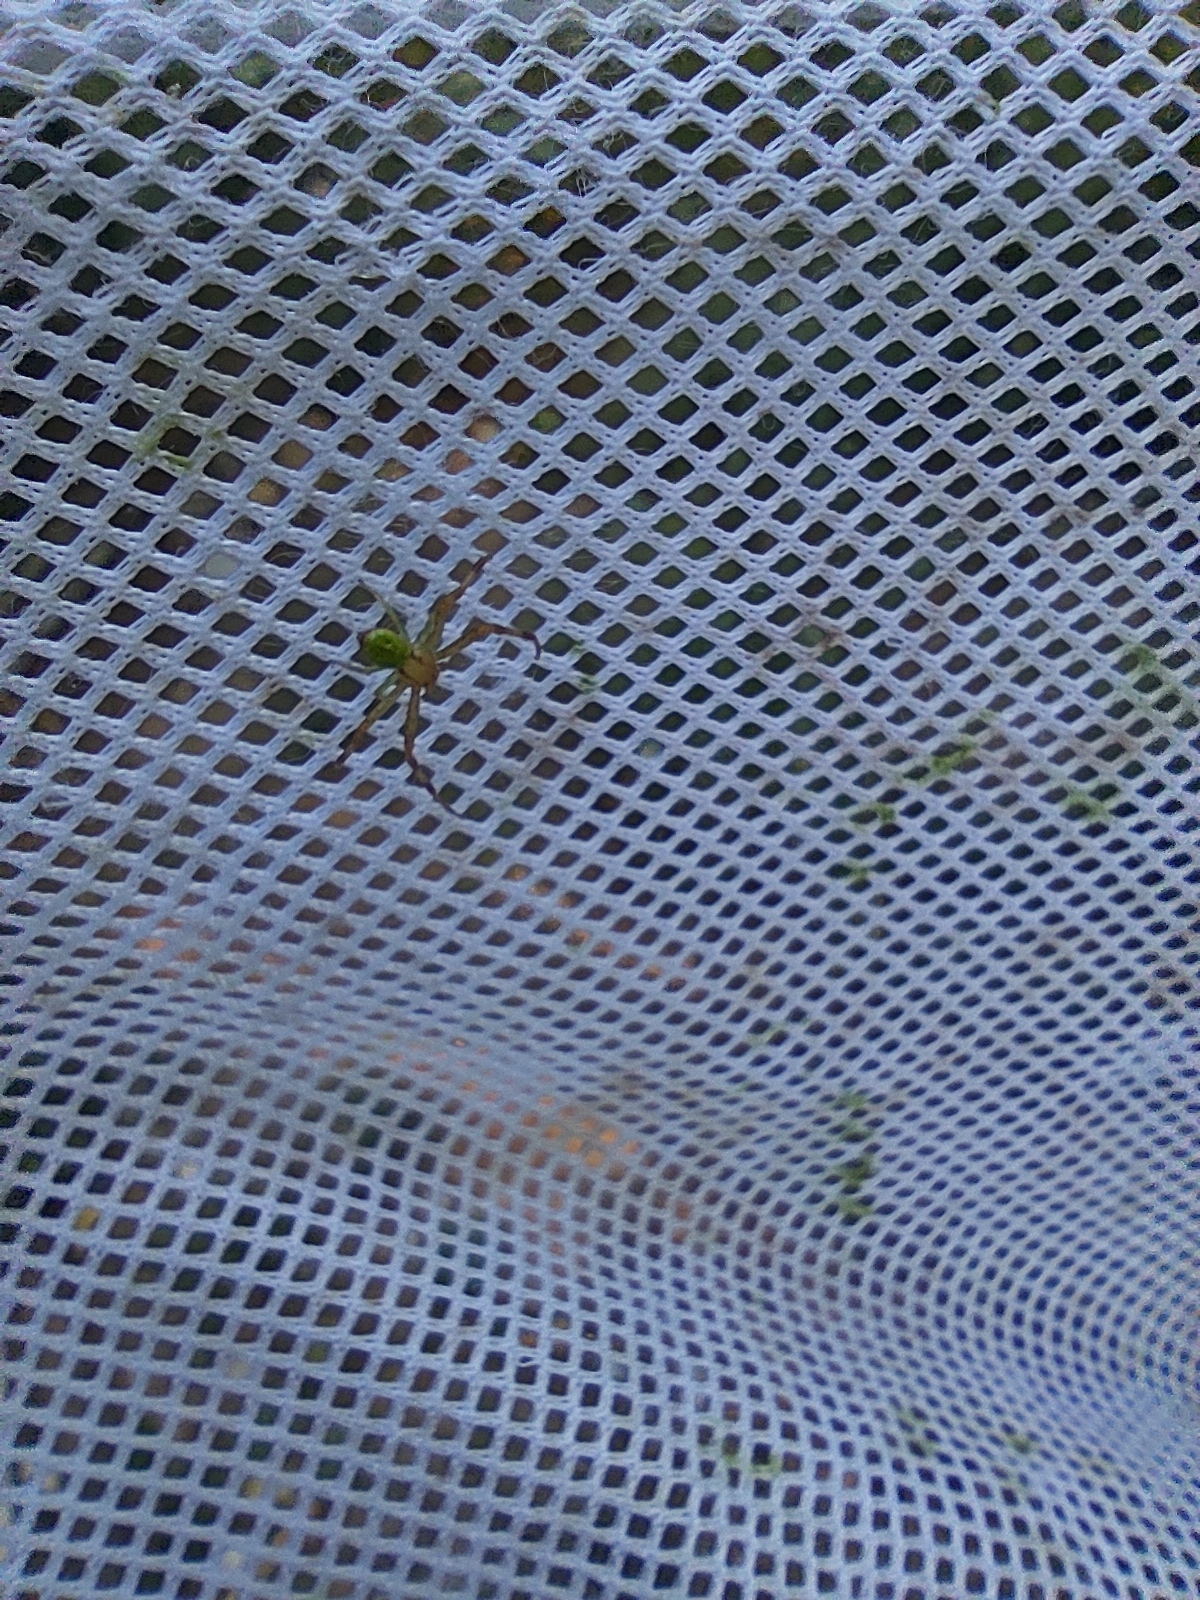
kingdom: Animalia
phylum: Arthropoda
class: Arachnida
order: Araneae
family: Thomisidae
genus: Ebrechtella
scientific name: Ebrechtella tricuspidata
